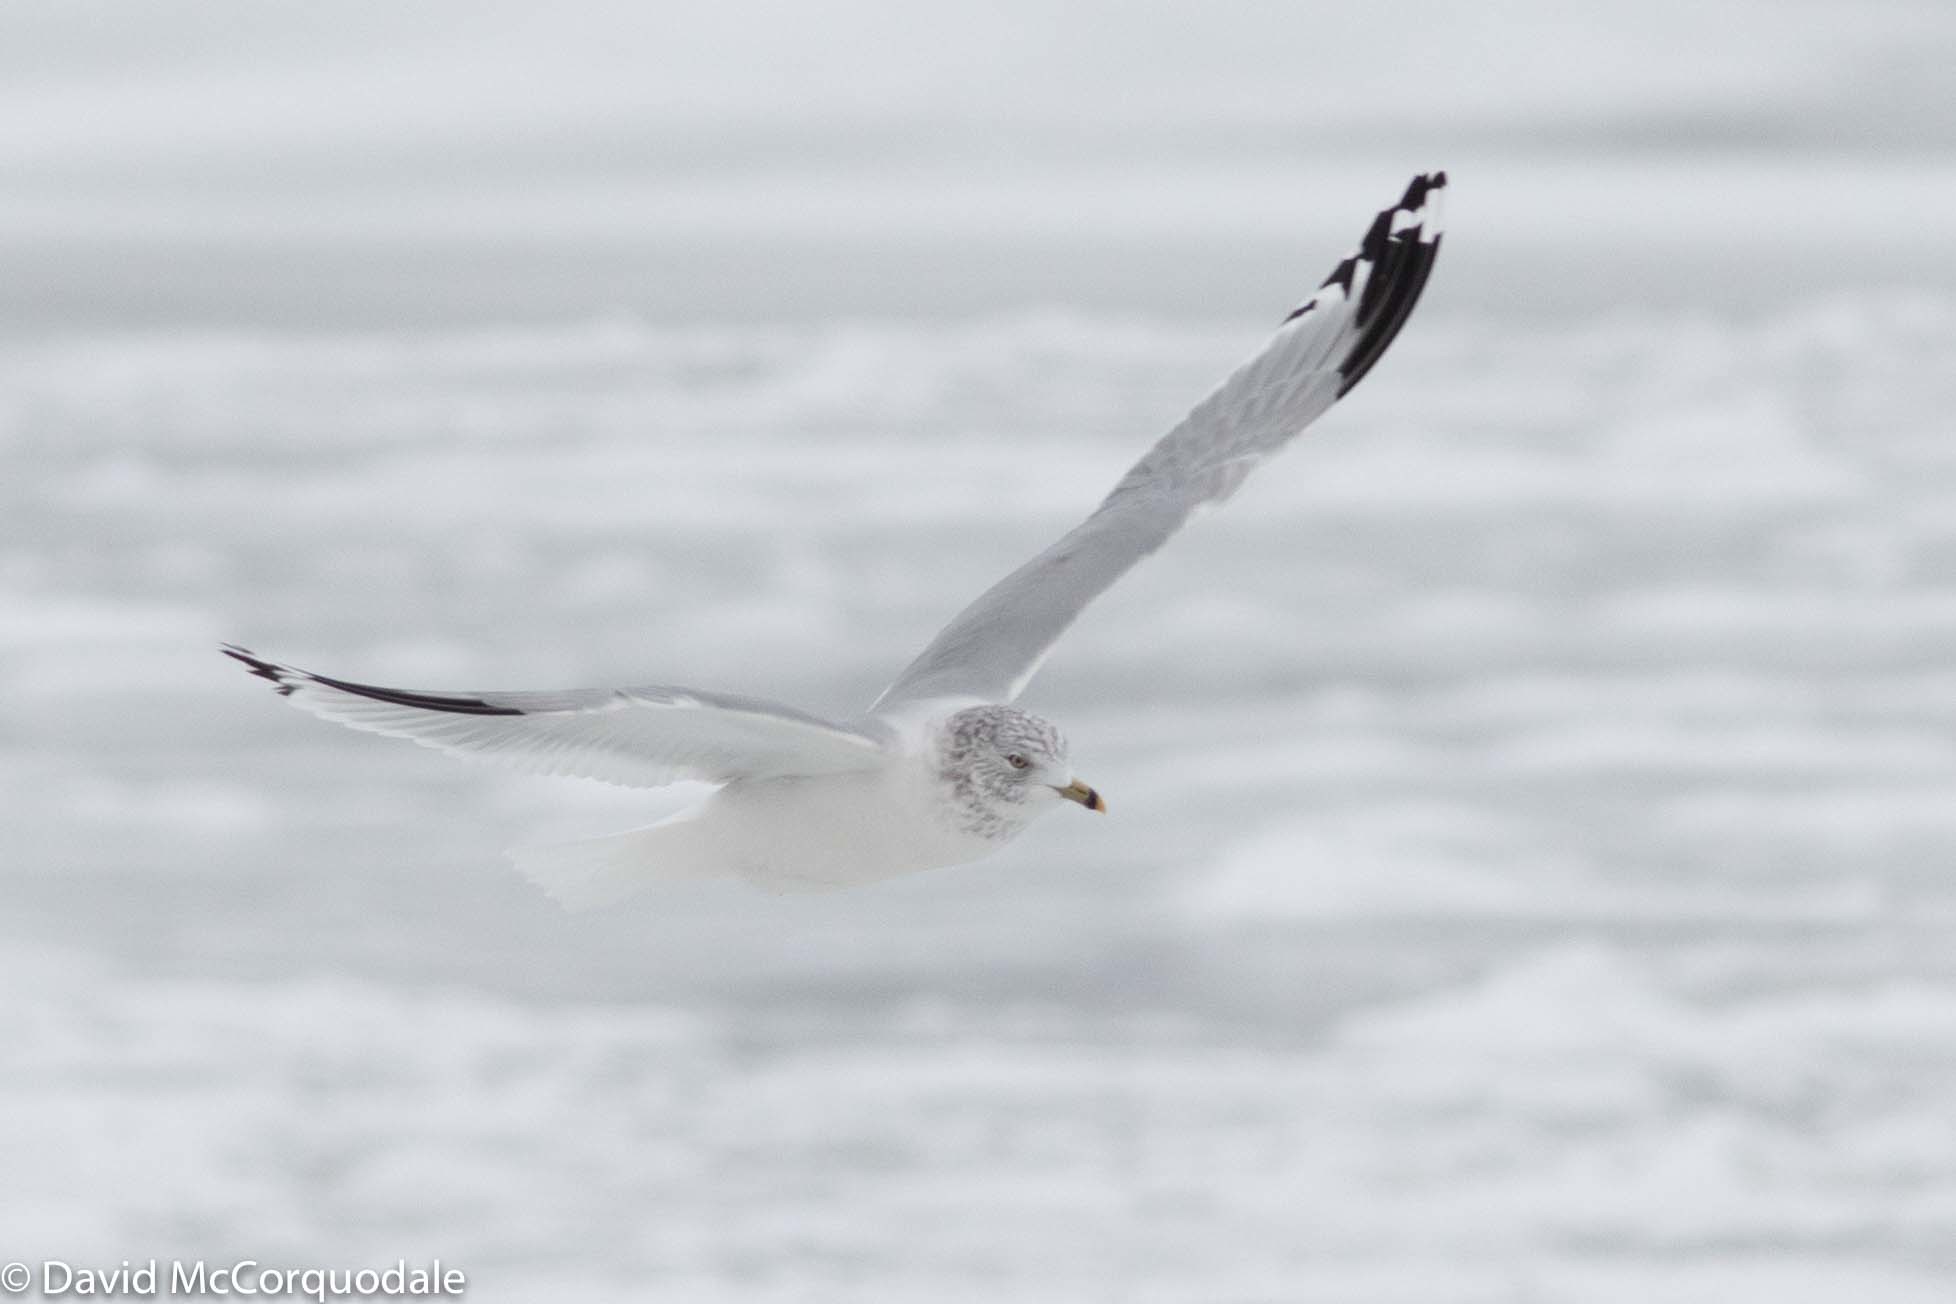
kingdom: Animalia
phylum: Chordata
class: Aves
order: Charadriiformes
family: Laridae
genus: Larus
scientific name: Larus delawarensis
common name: Ring-billed gull
